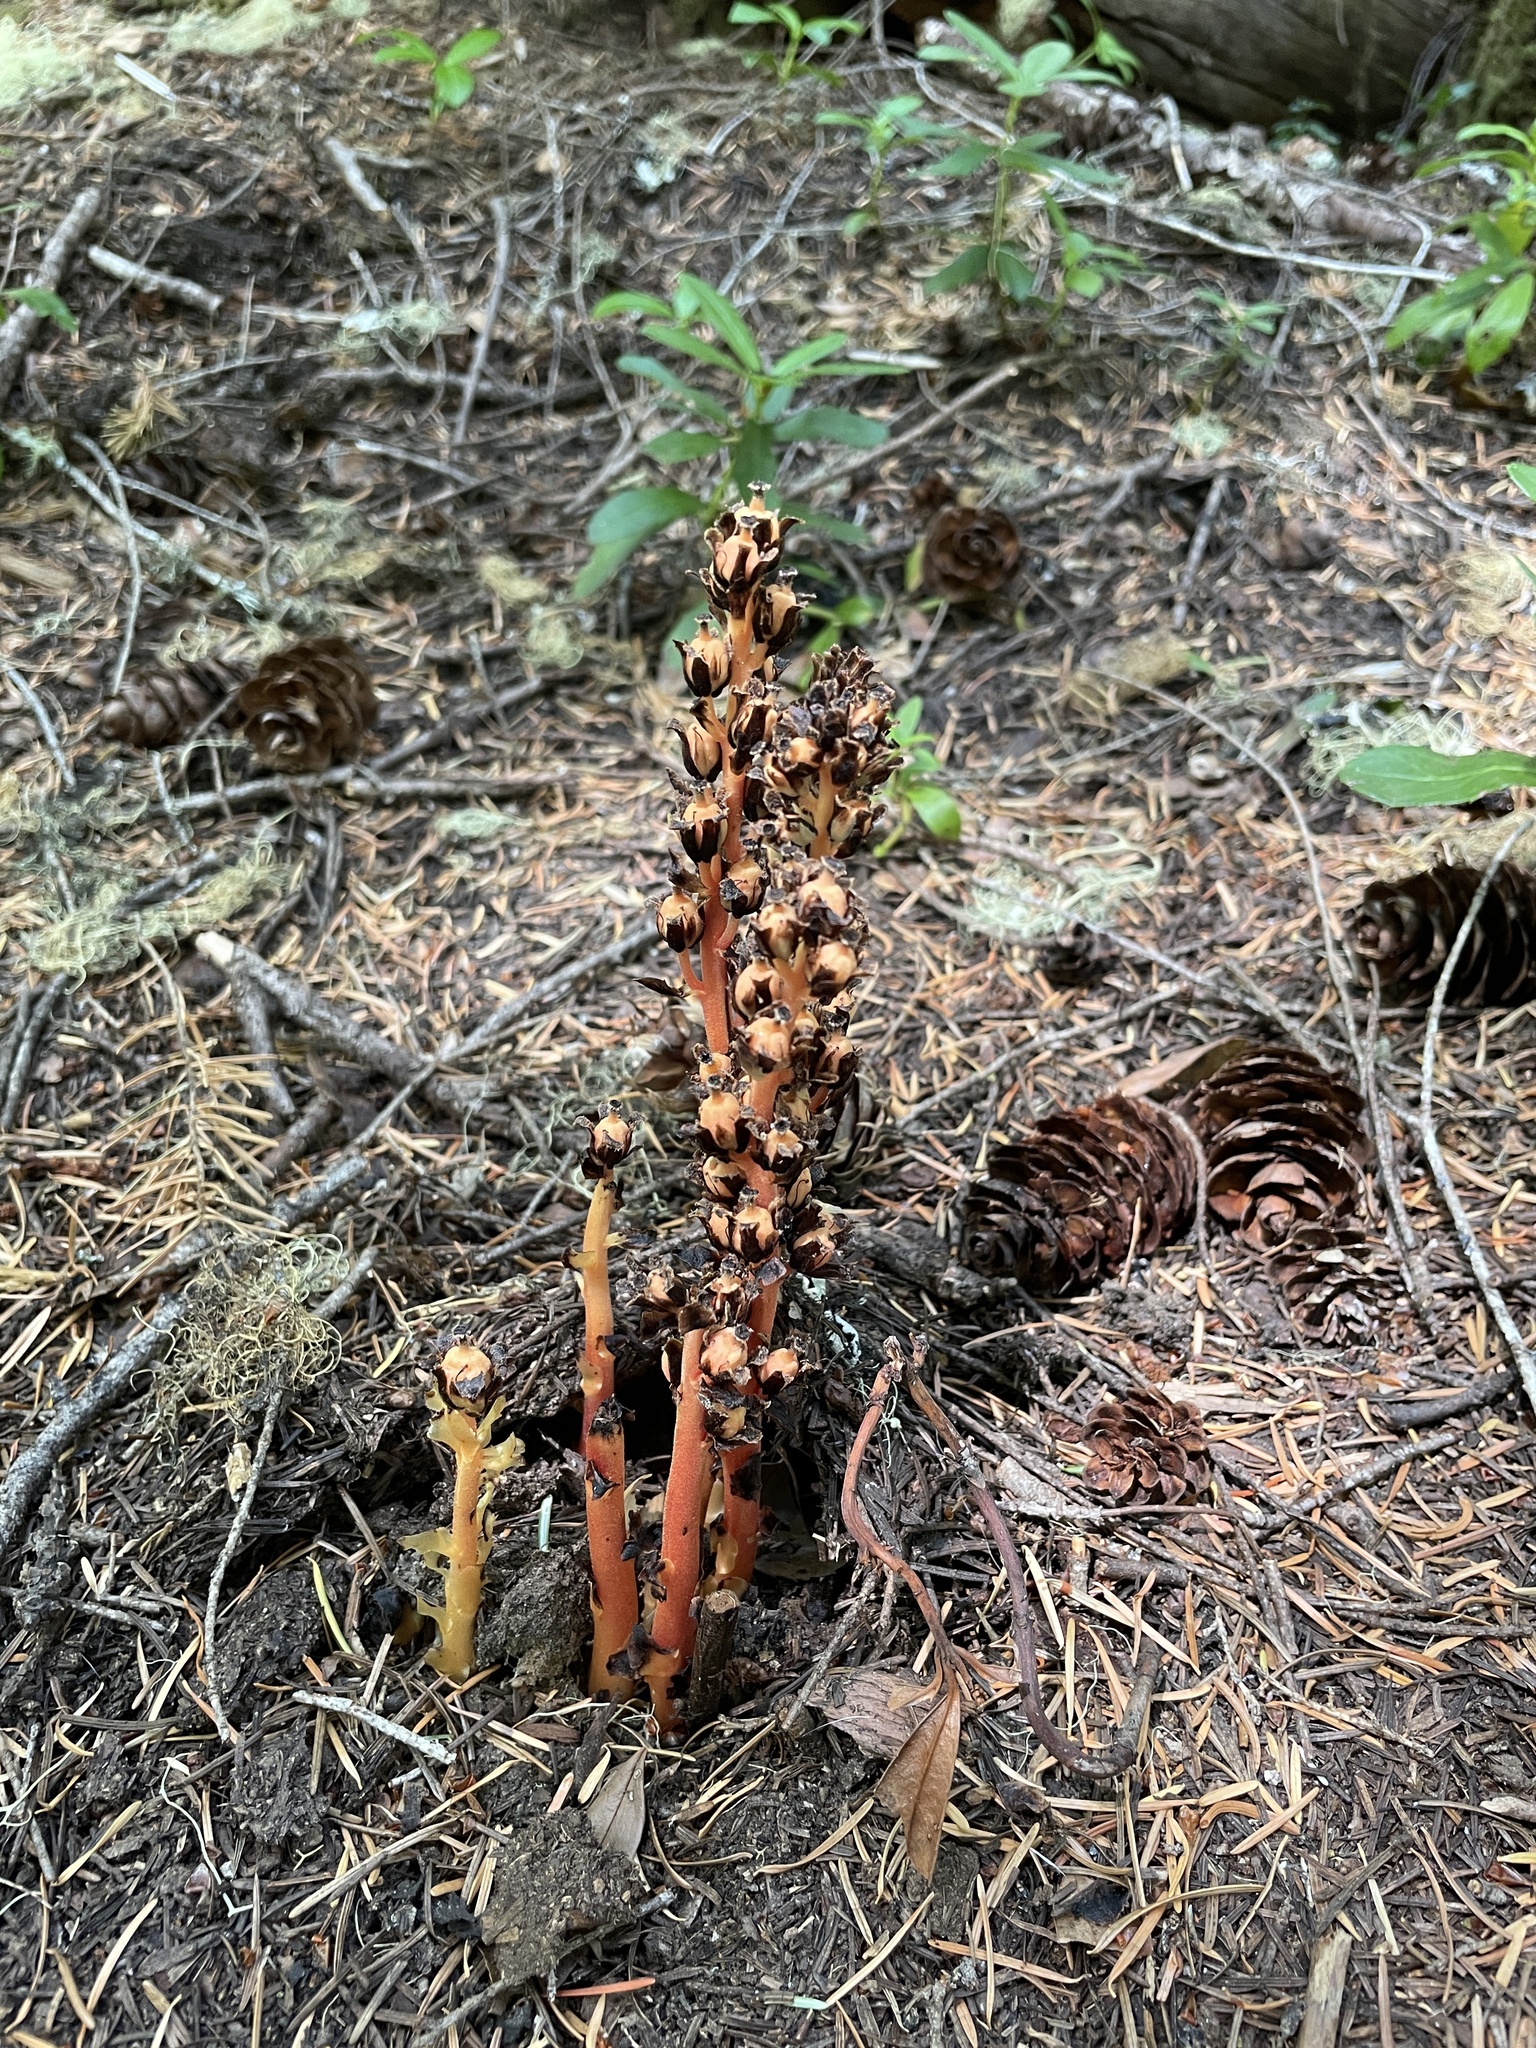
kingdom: Plantae
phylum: Tracheophyta
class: Magnoliopsida
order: Ericales
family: Ericaceae
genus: Hypopitys
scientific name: Hypopitys monotropa
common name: Yellow bird's-nest
